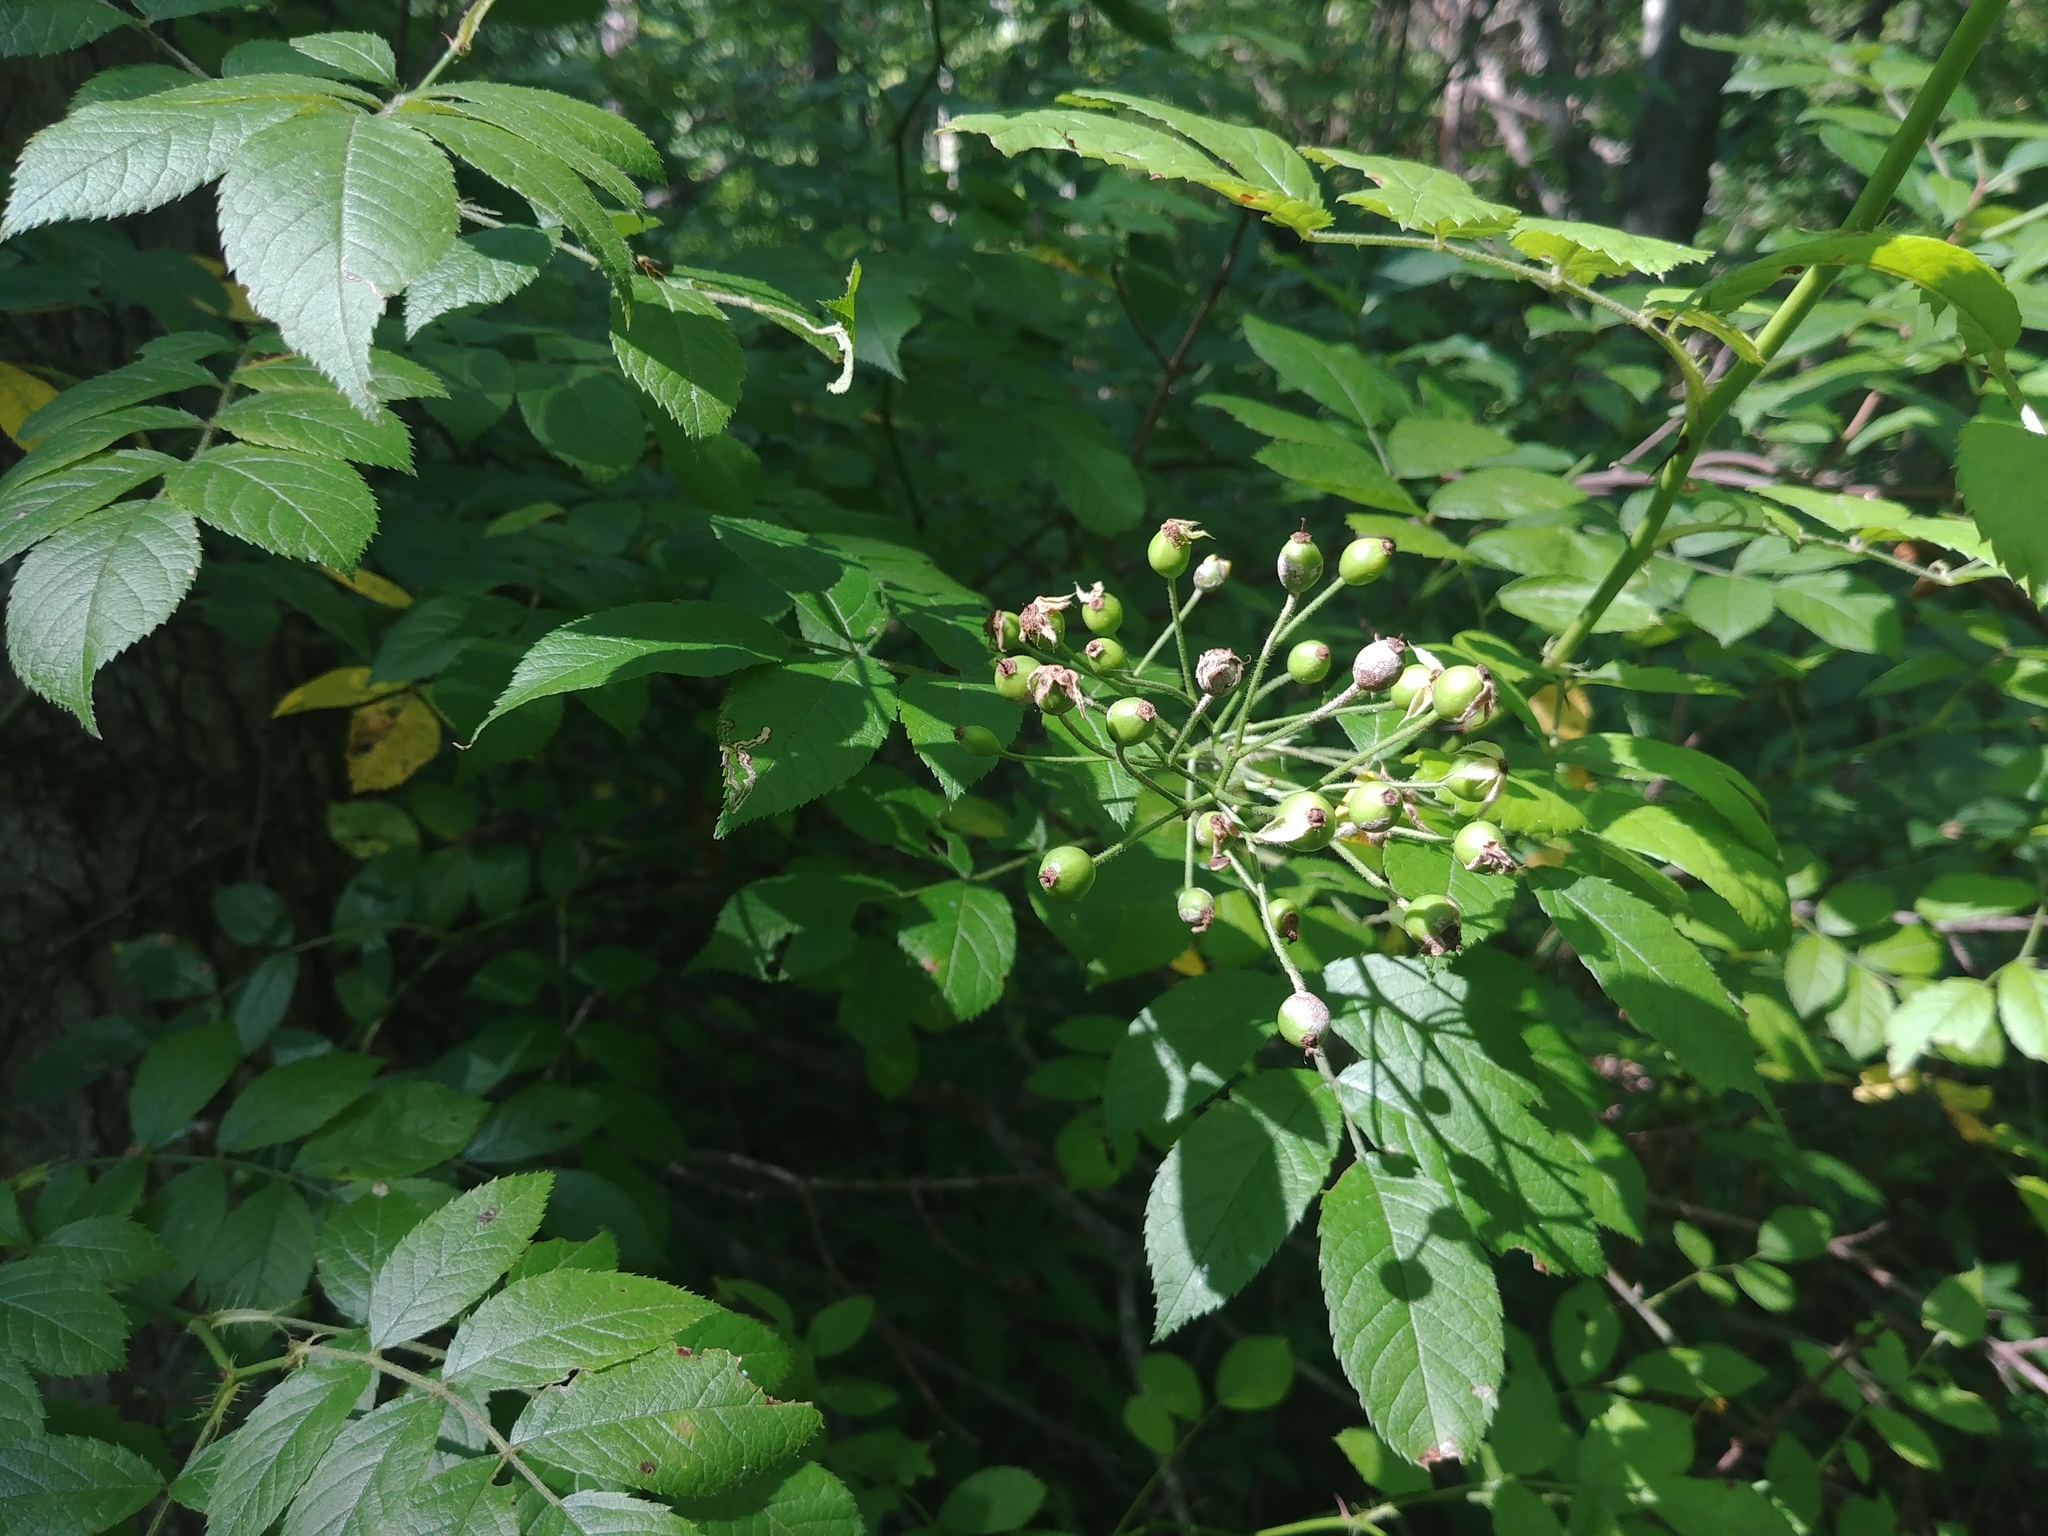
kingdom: Plantae
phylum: Tracheophyta
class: Magnoliopsida
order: Rosales
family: Rosaceae
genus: Rosa
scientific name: Rosa multiflora
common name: Multiflora rose
